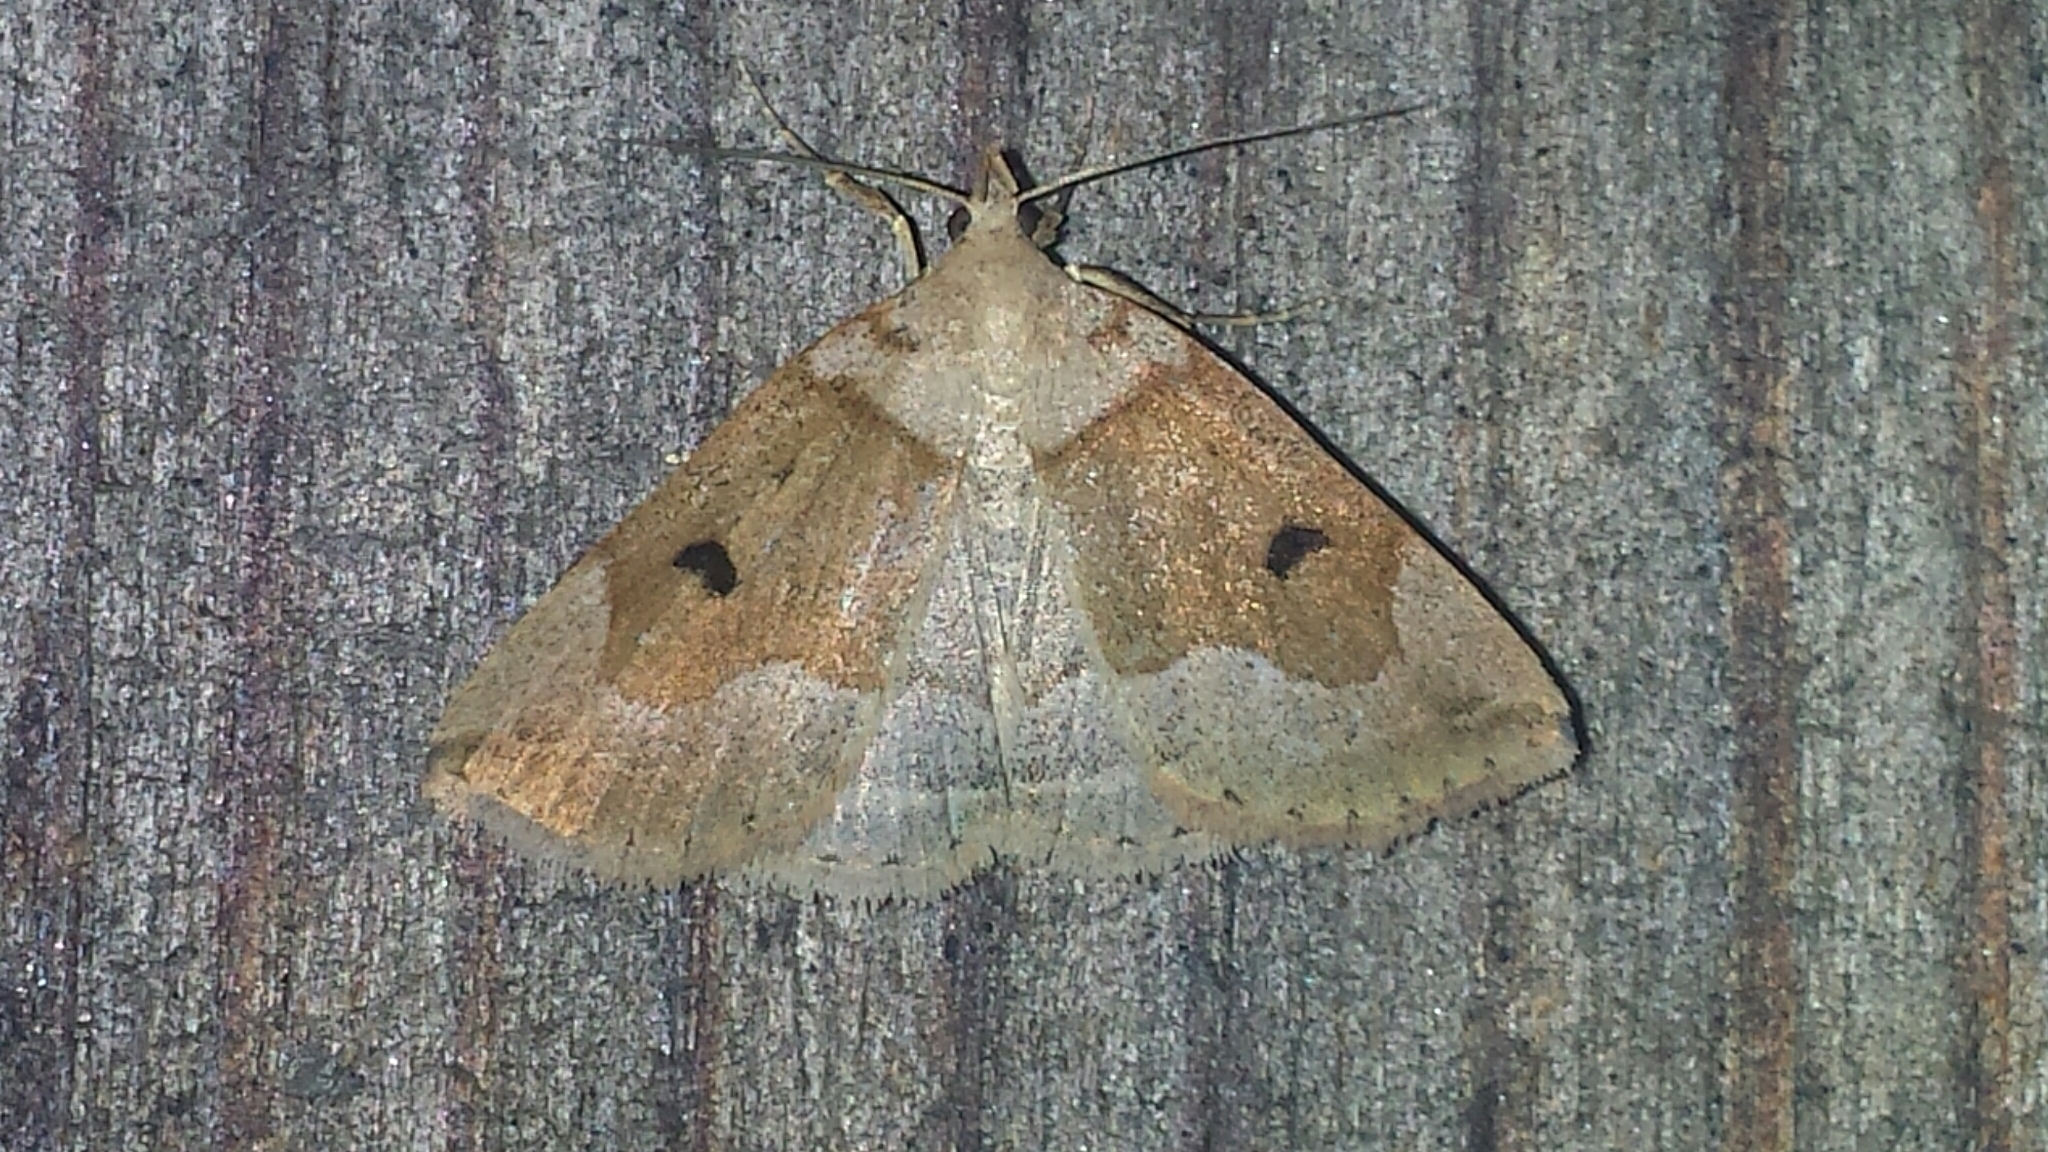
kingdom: Animalia
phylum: Arthropoda
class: Insecta
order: Lepidoptera
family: Erebidae
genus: Zanclognatha
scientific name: Zanclognatha laevigata
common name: Variable fan-foot
